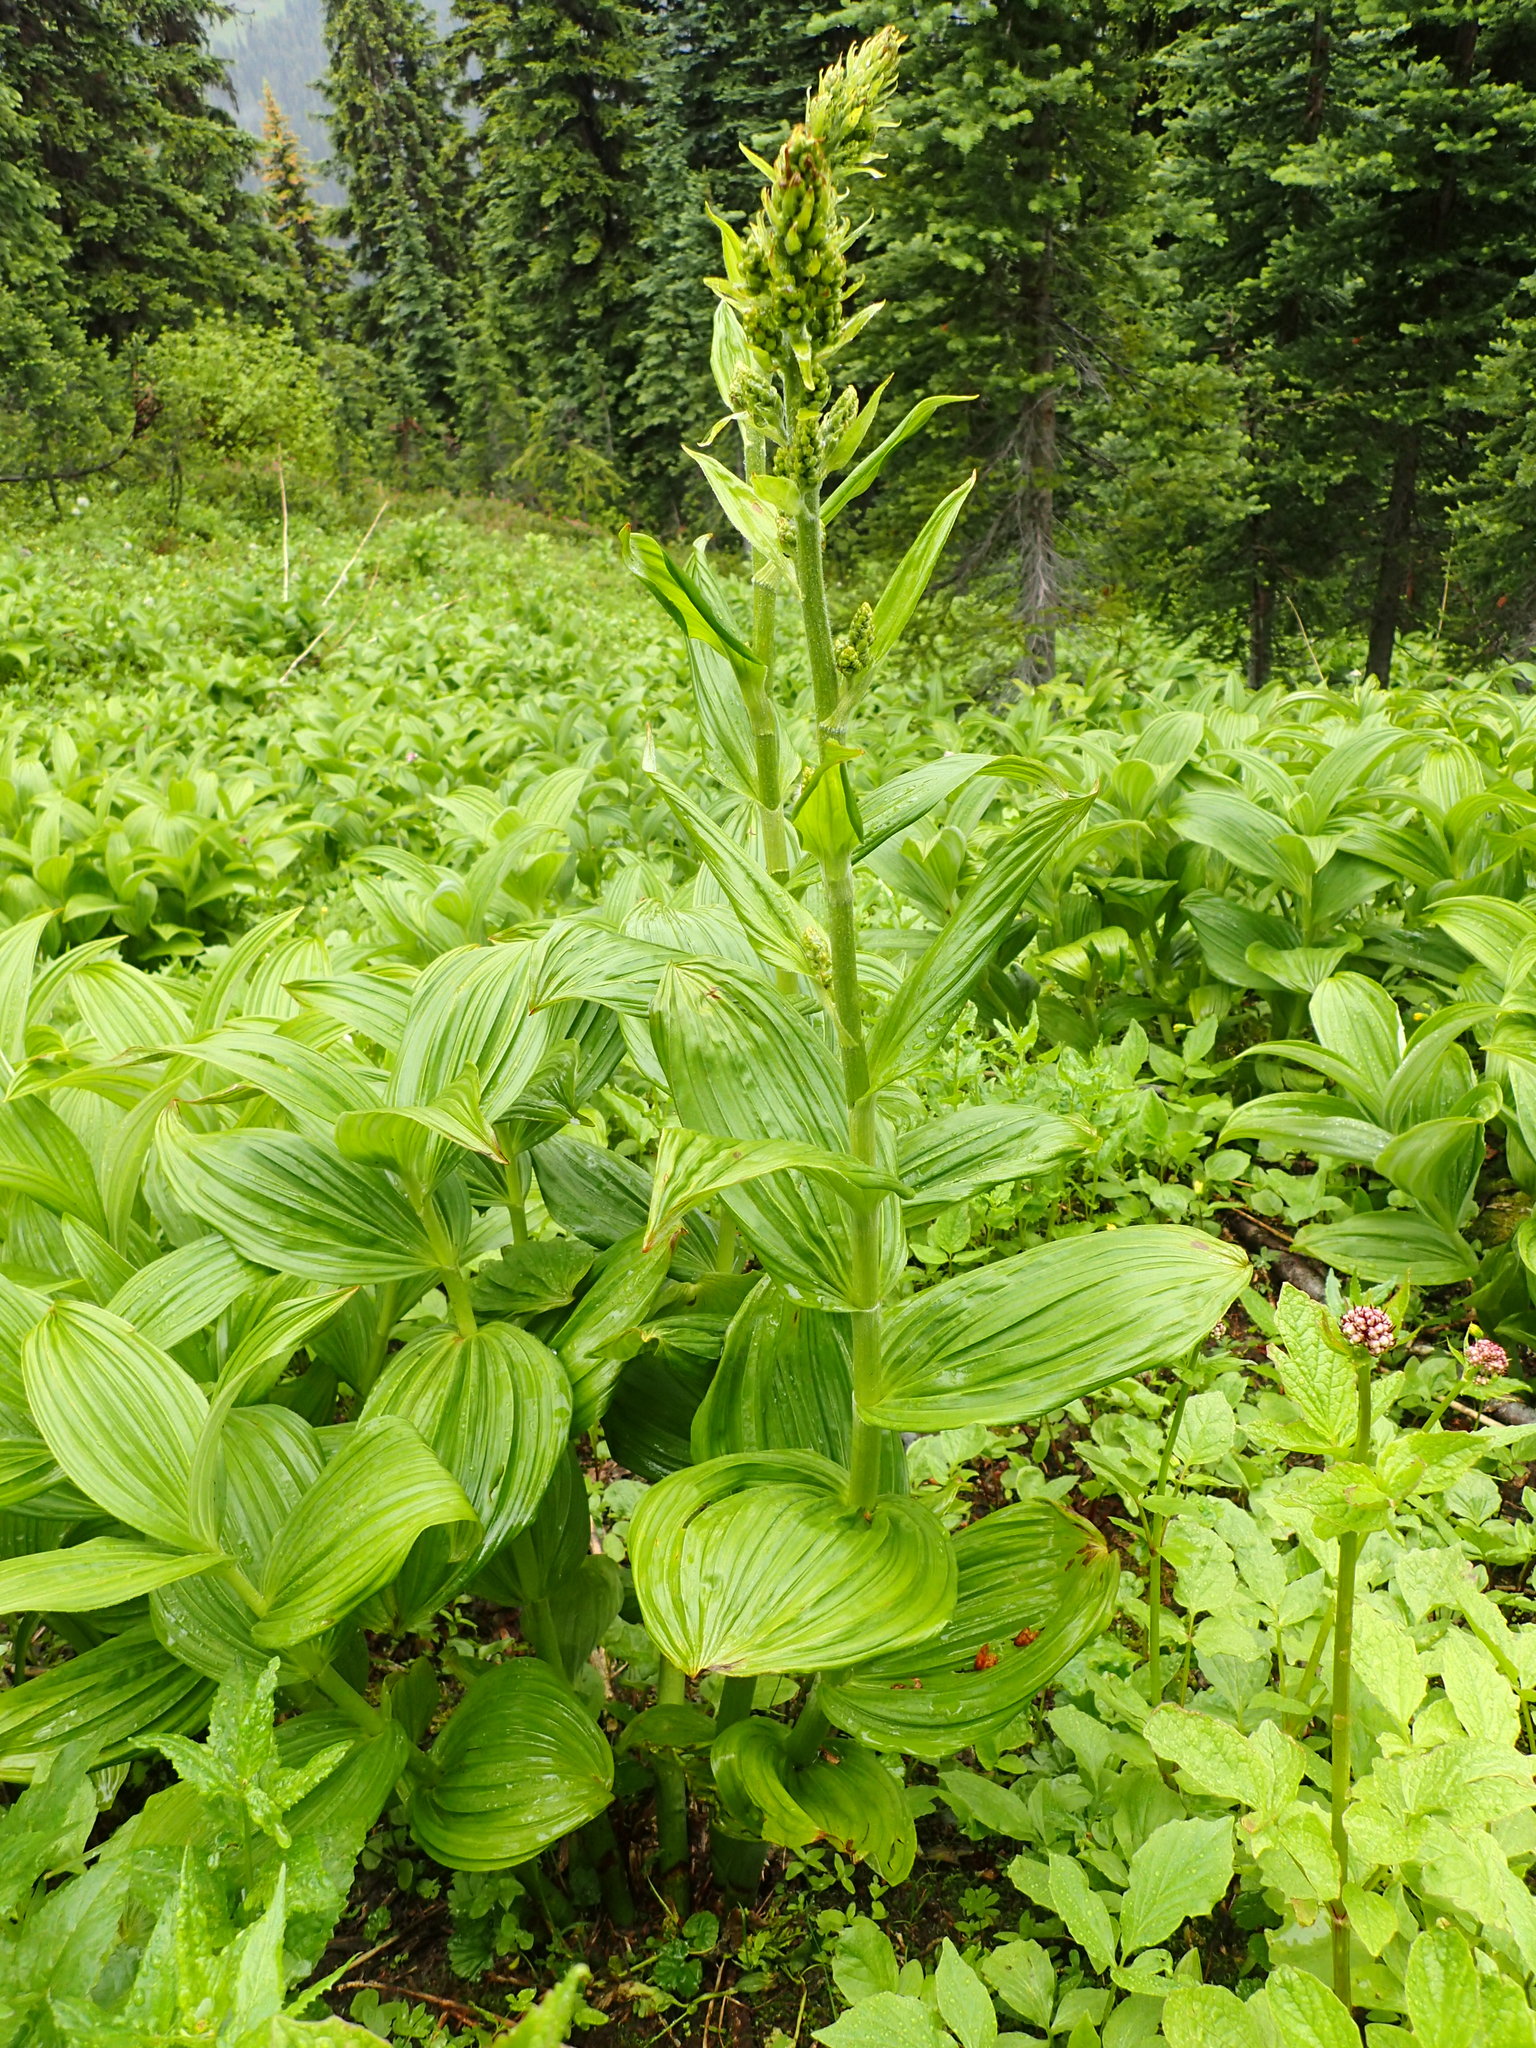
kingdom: Plantae
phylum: Tracheophyta
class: Liliopsida
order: Liliales
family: Melanthiaceae
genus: Veratrum
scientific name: Veratrum viride
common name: American false hellebore
